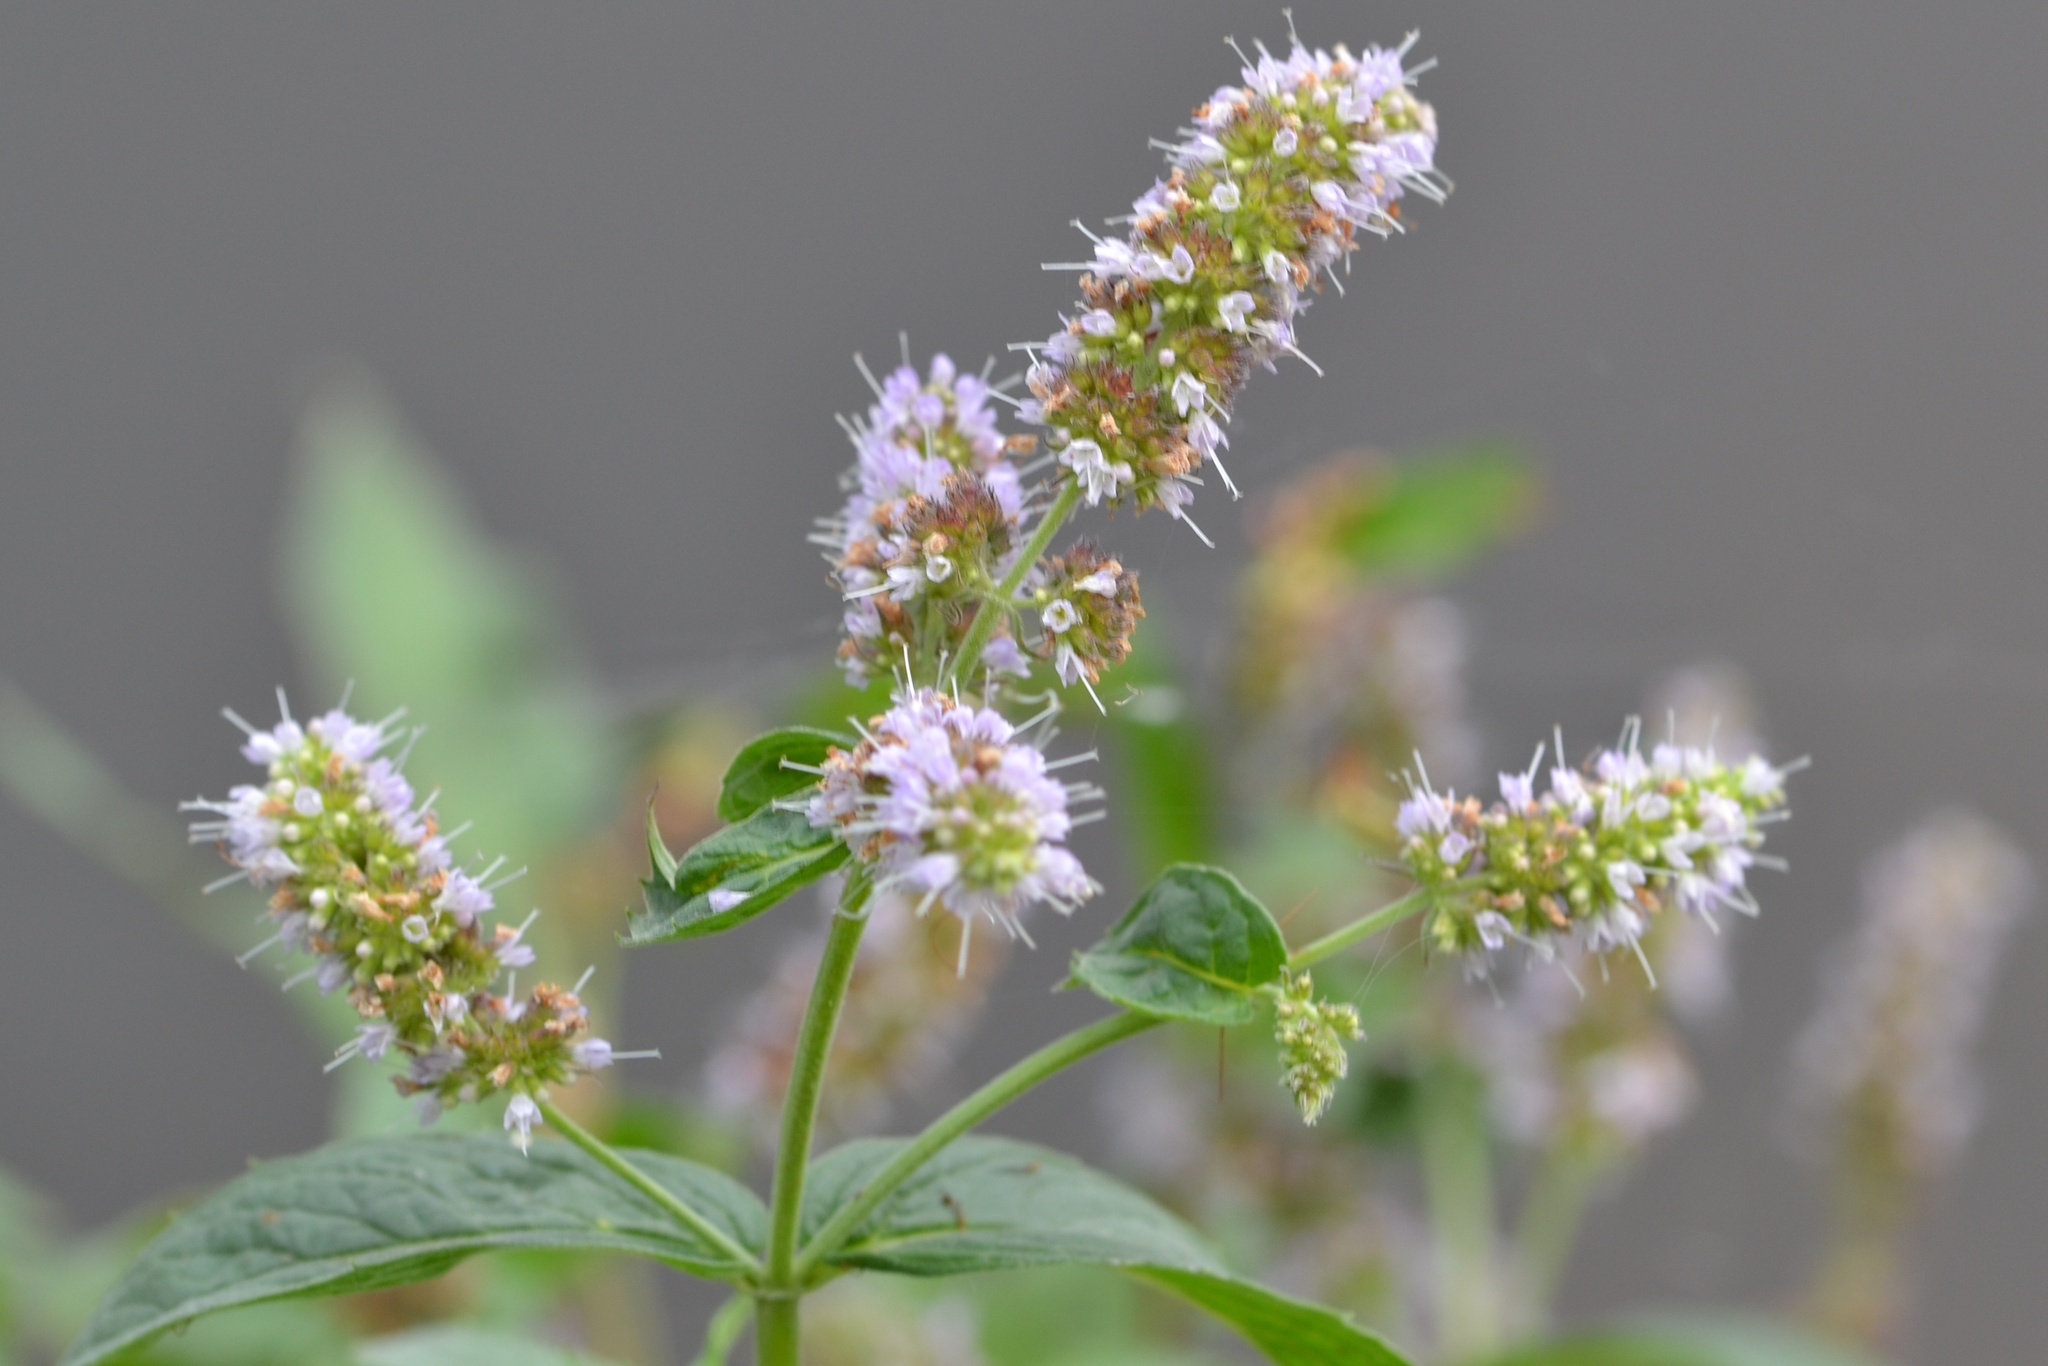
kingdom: Plantae
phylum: Tracheophyta
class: Magnoliopsida
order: Lamiales
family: Lamiaceae
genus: Mentha
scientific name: Mentha longifolia
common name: Horse mint
